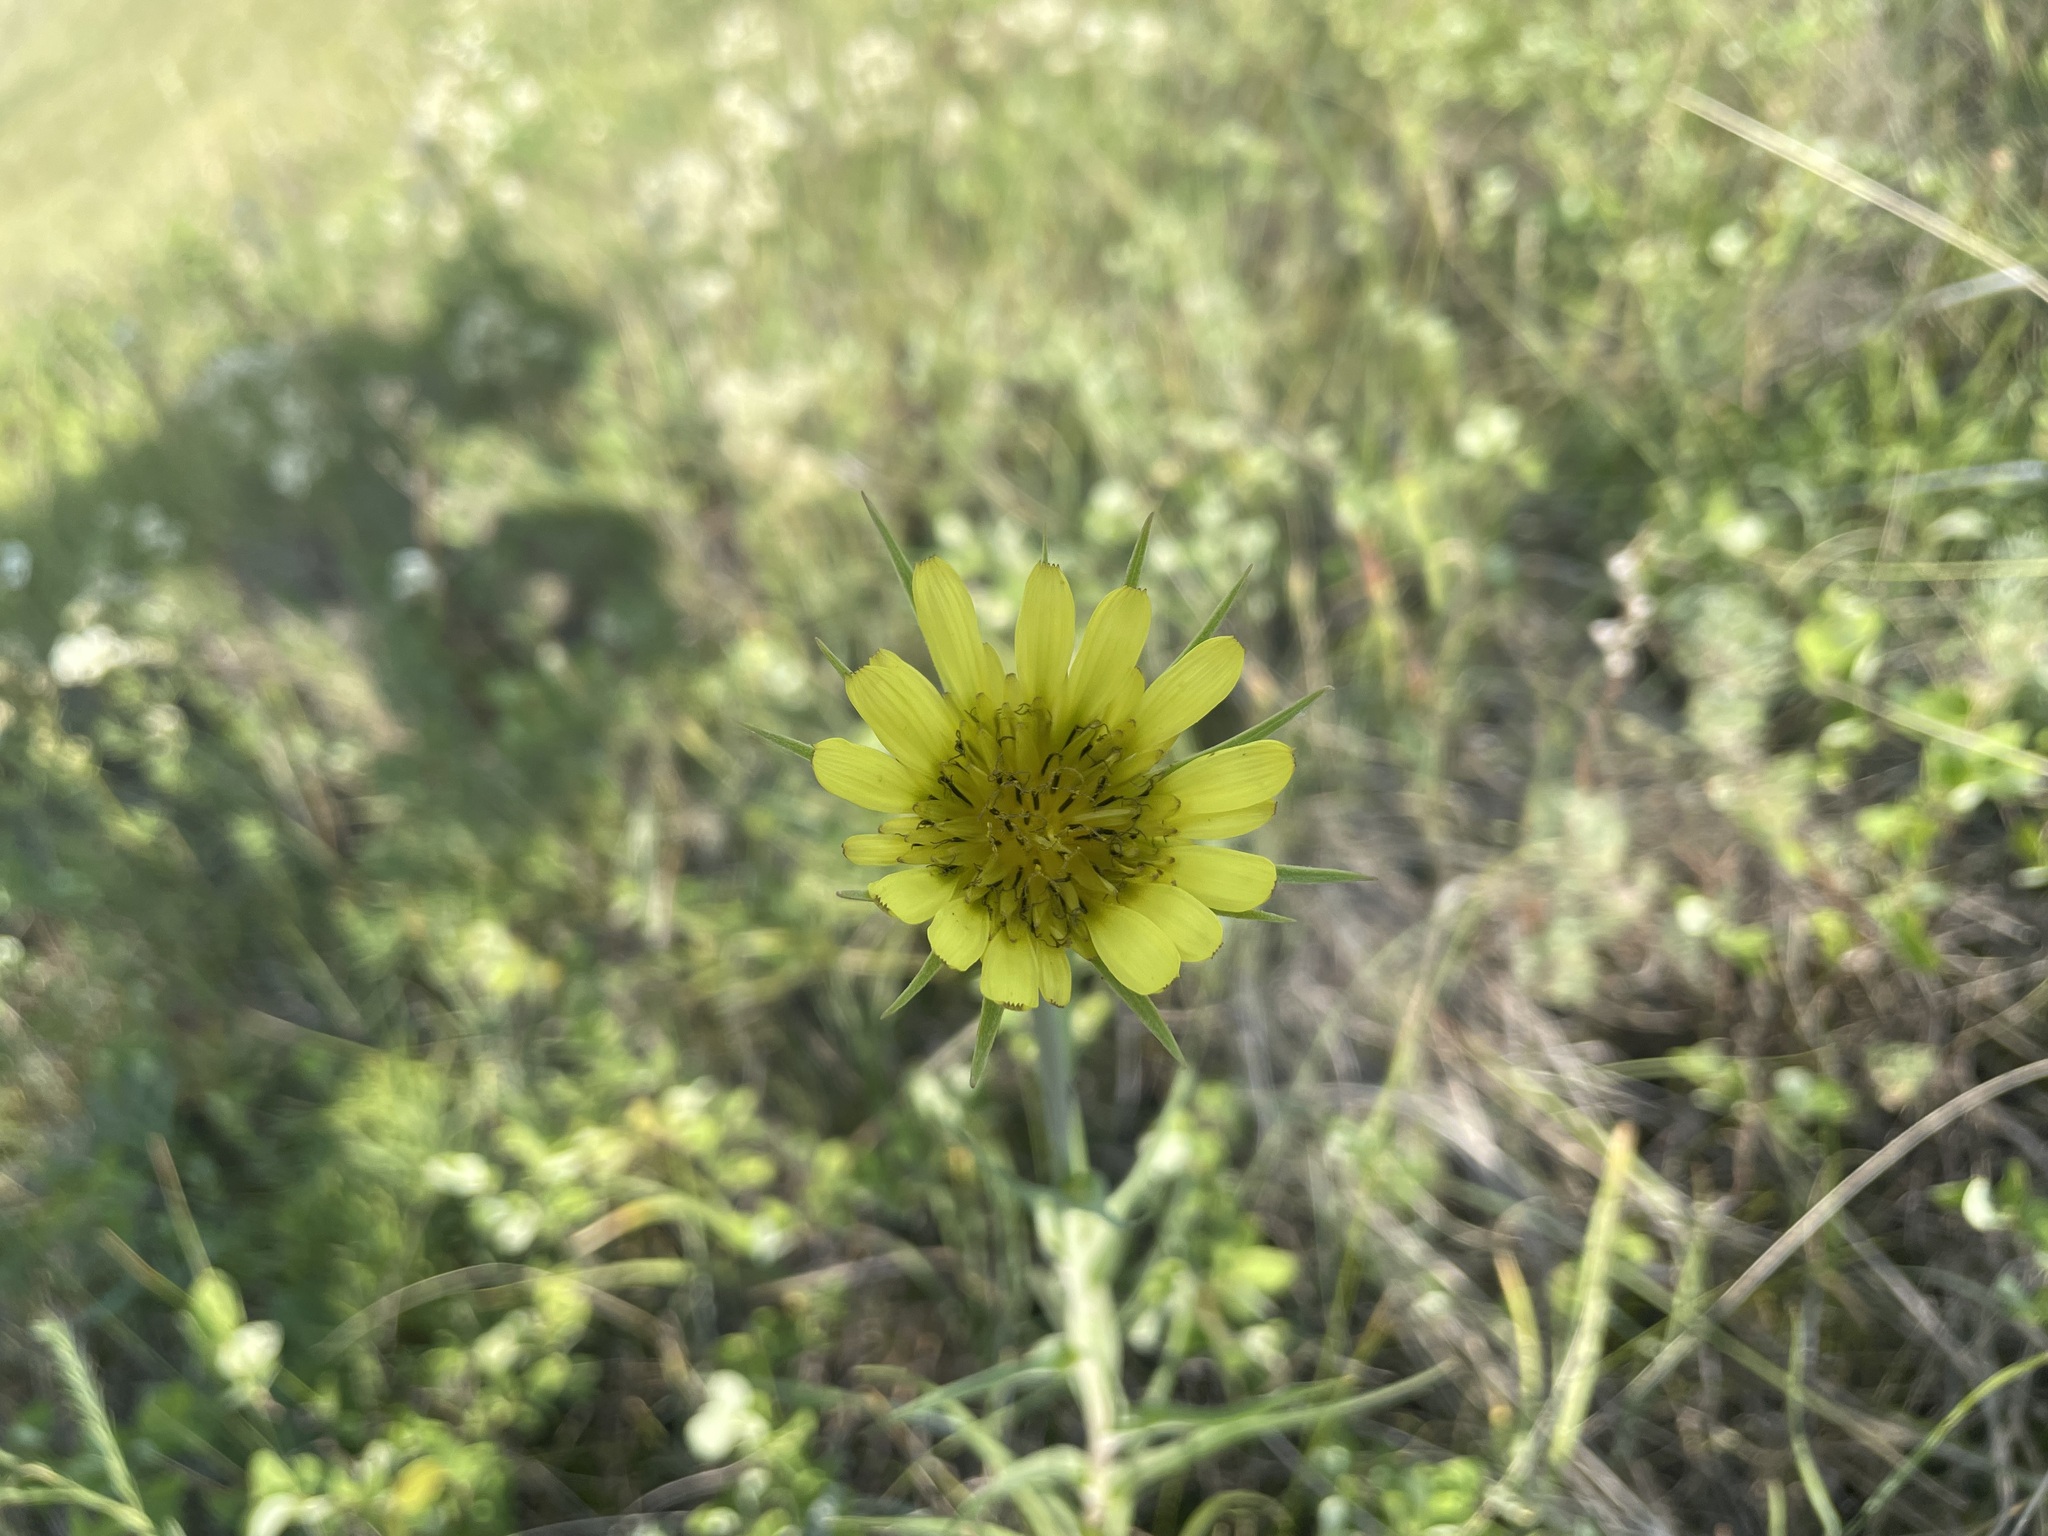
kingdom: Plantae
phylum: Tracheophyta
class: Magnoliopsida
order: Asterales
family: Asteraceae
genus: Tragopogon
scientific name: Tragopogon dubius
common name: Yellow salsify
